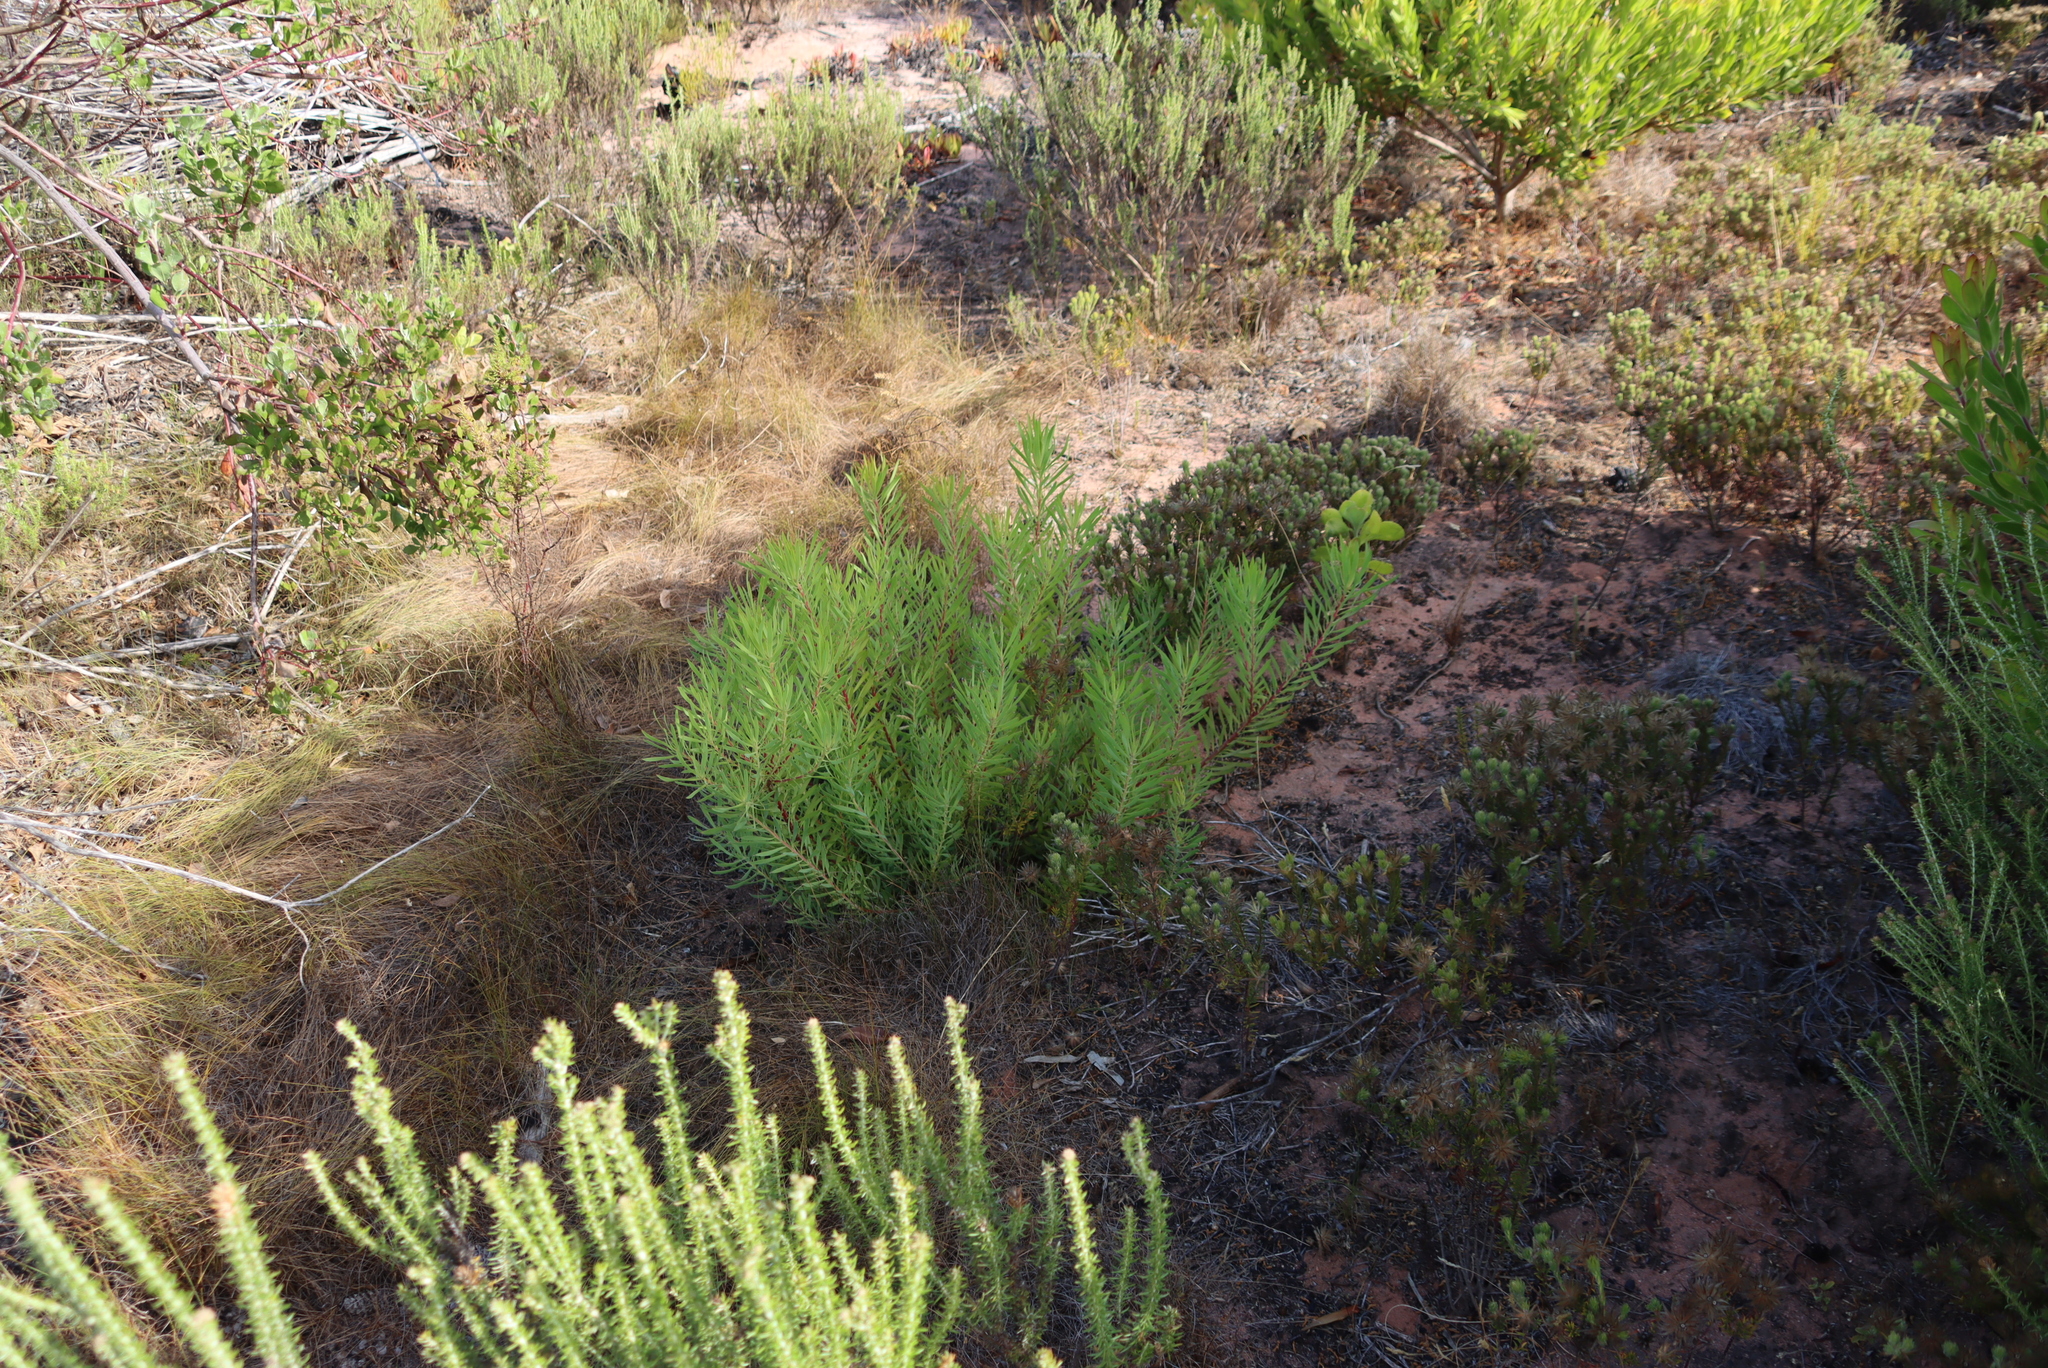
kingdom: Plantae
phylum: Tracheophyta
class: Magnoliopsida
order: Proteales
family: Proteaceae
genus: Leucadendron
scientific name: Leucadendron salignum
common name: Common sunshine conebush
